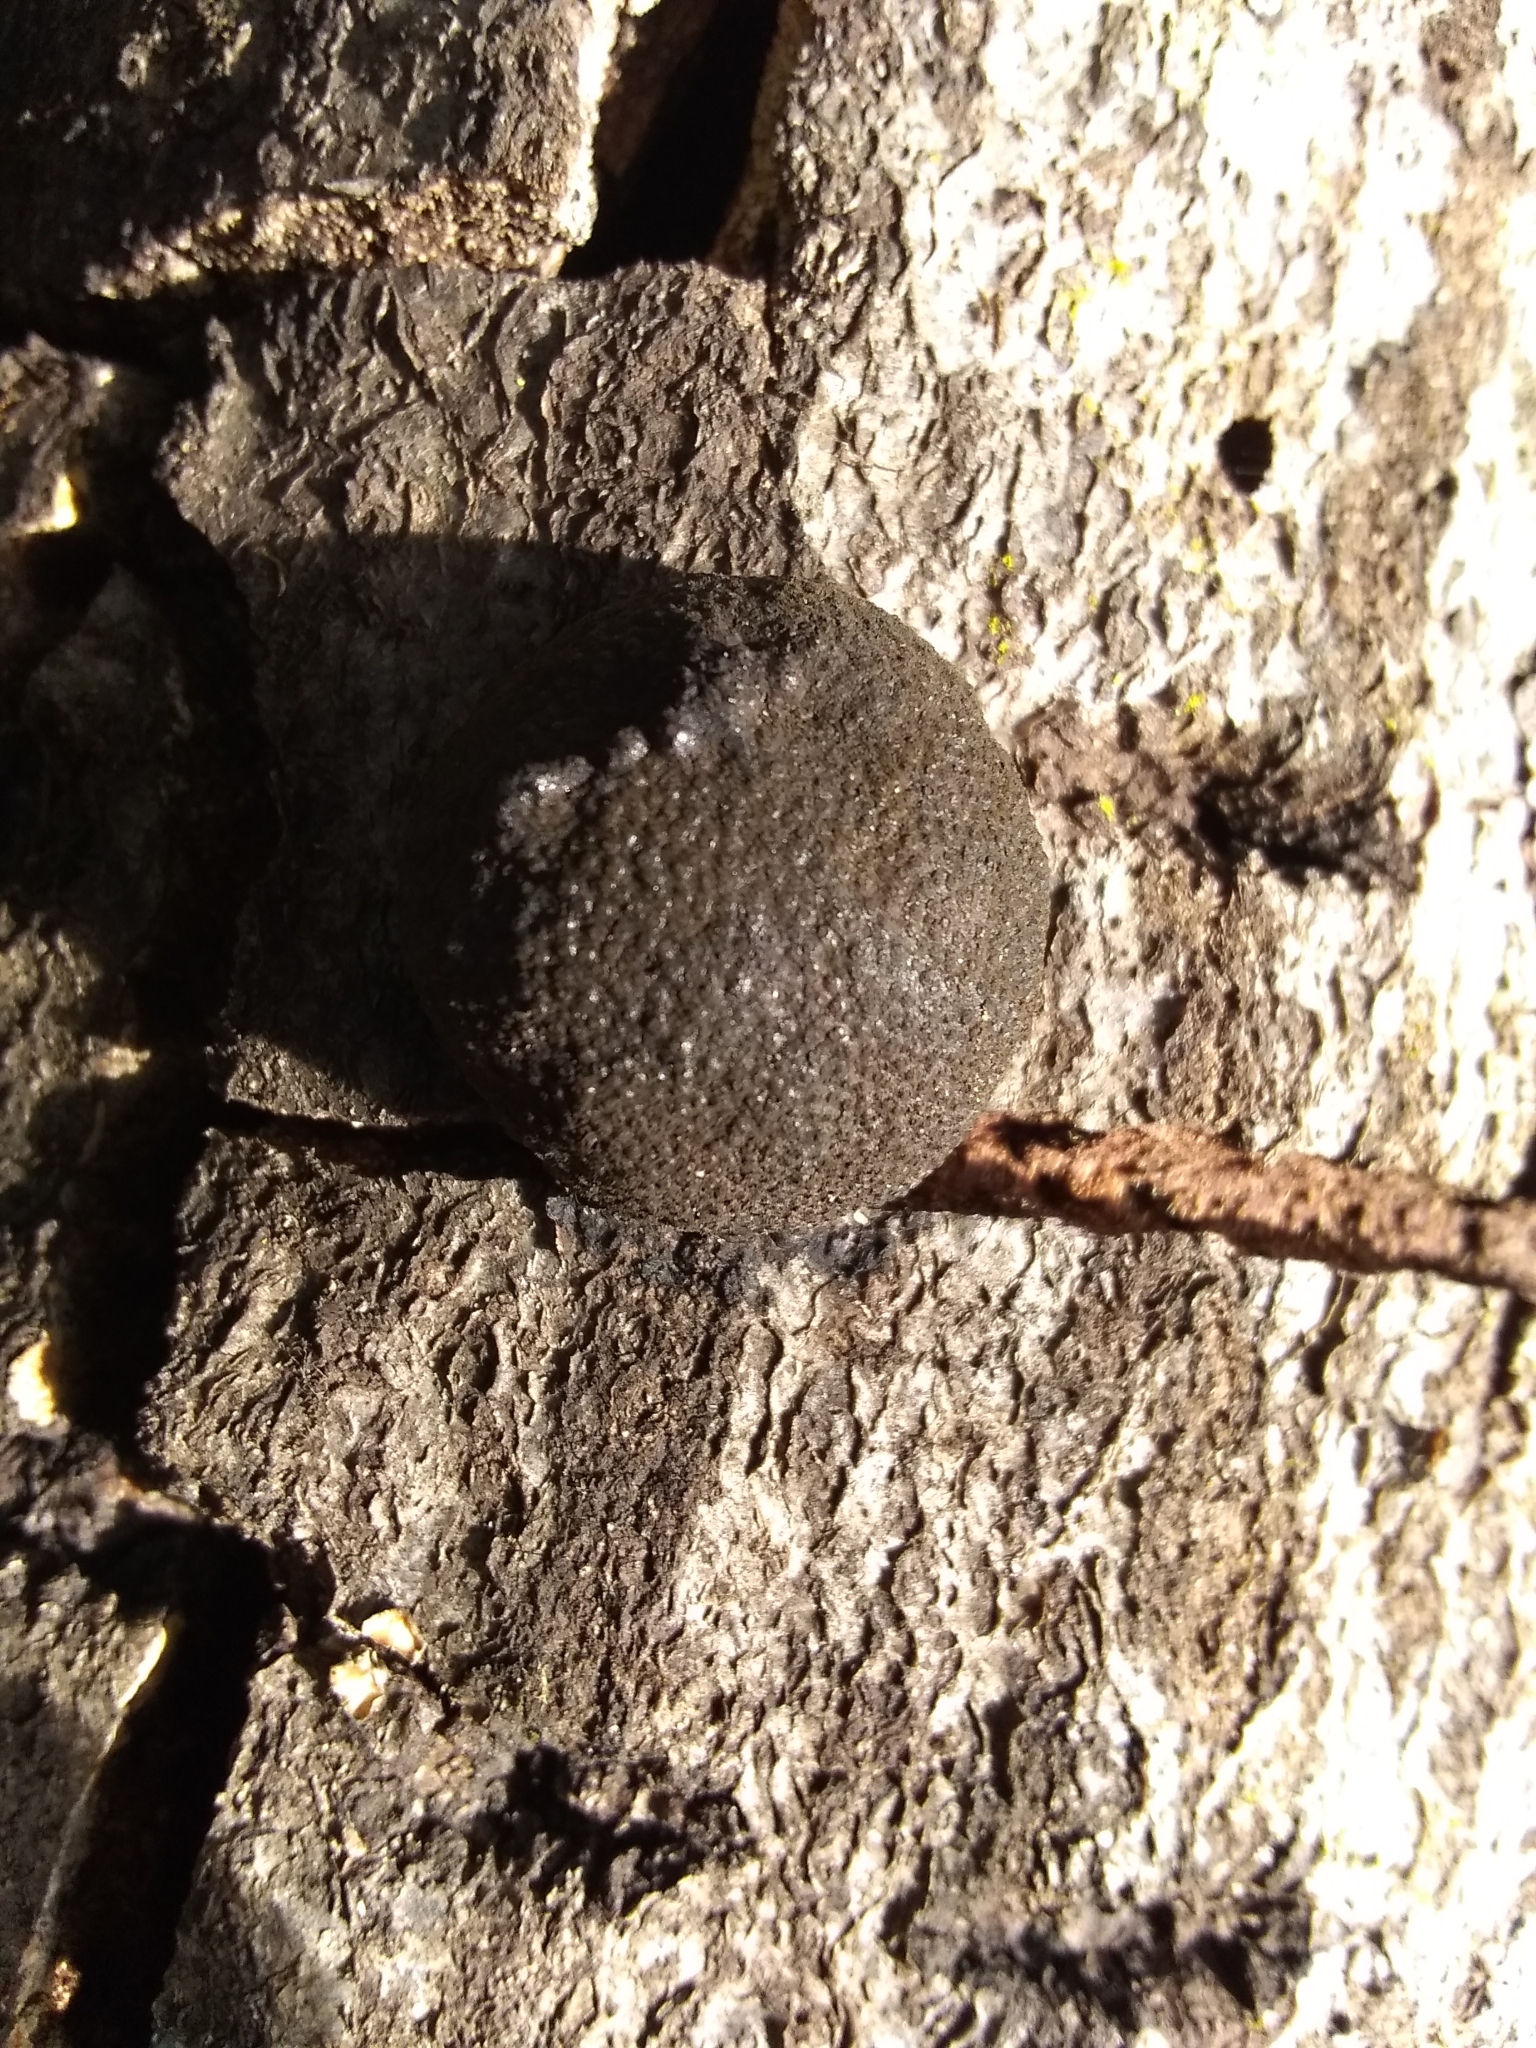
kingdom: Fungi
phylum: Ascomycota
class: Sordariomycetes
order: Xylariales
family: Hypoxylaceae
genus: Annulohypoxylon
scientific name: Annulohypoxylon thouarsianum
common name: Cramp balls
